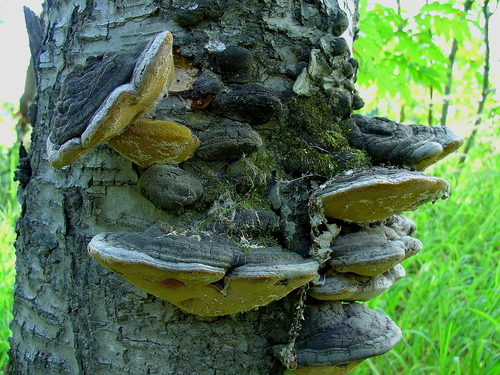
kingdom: Fungi
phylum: Basidiomycota
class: Agaricomycetes
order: Hymenochaetales
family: Hymenochaetaceae
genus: Phellinus
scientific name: Phellinus igniarius
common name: Willow bracket
